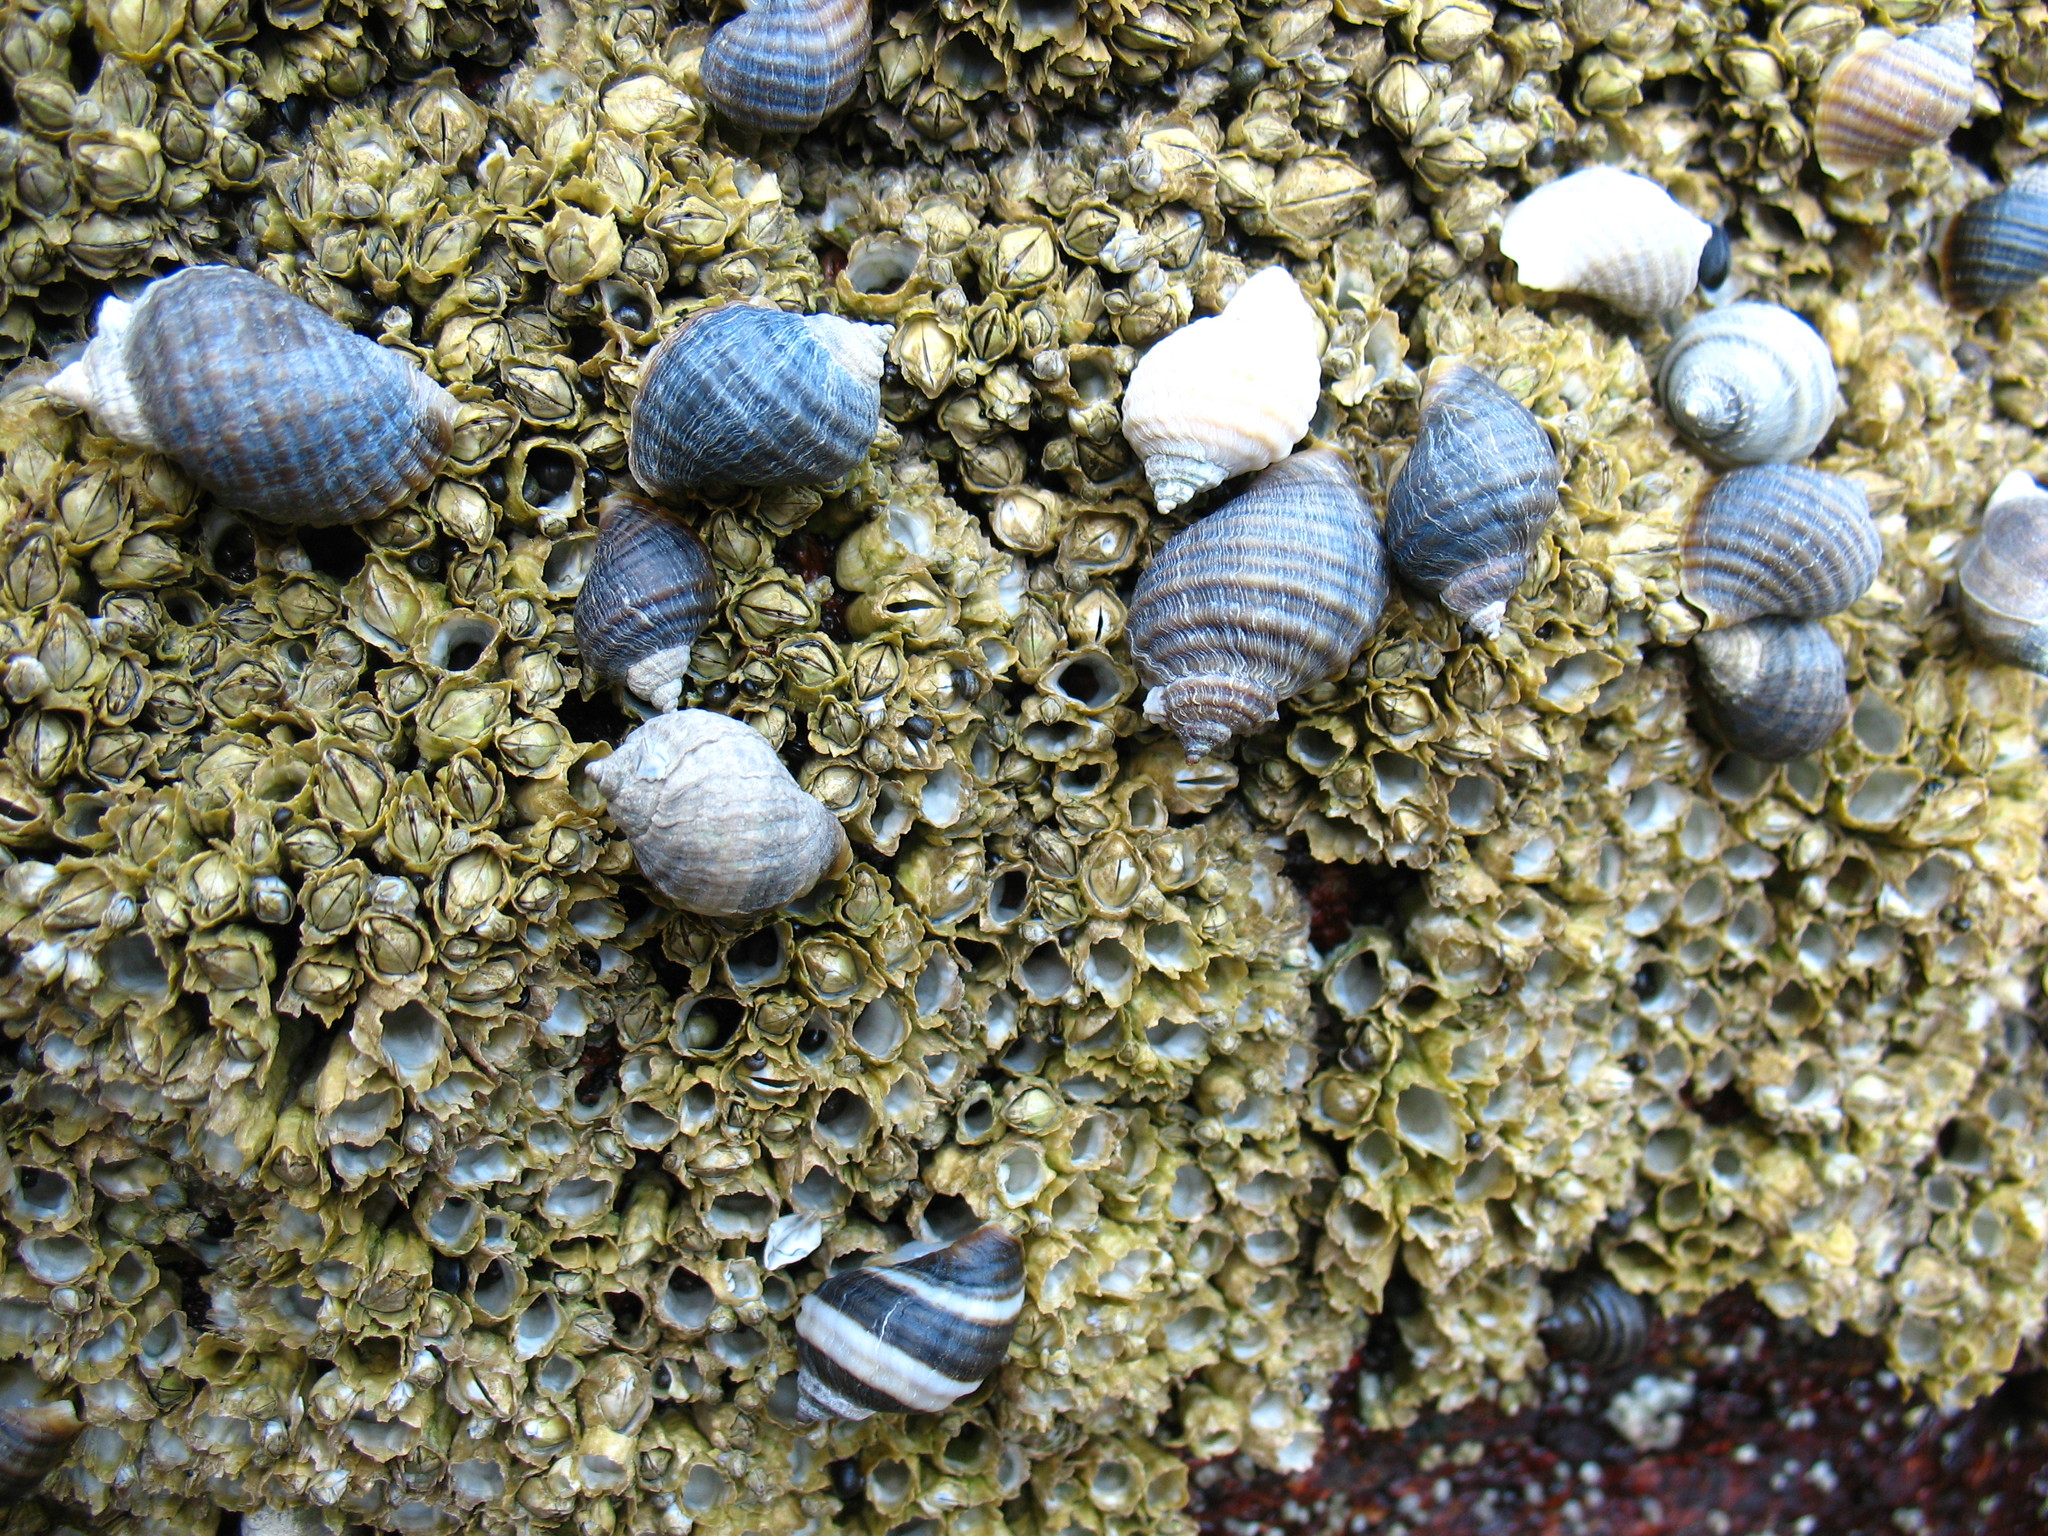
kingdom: Animalia
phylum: Arthropoda
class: Maxillopoda
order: Sessilia
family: Archaeobalanidae
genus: Semibalanus
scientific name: Semibalanus balanoides
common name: Acorn barnacle
